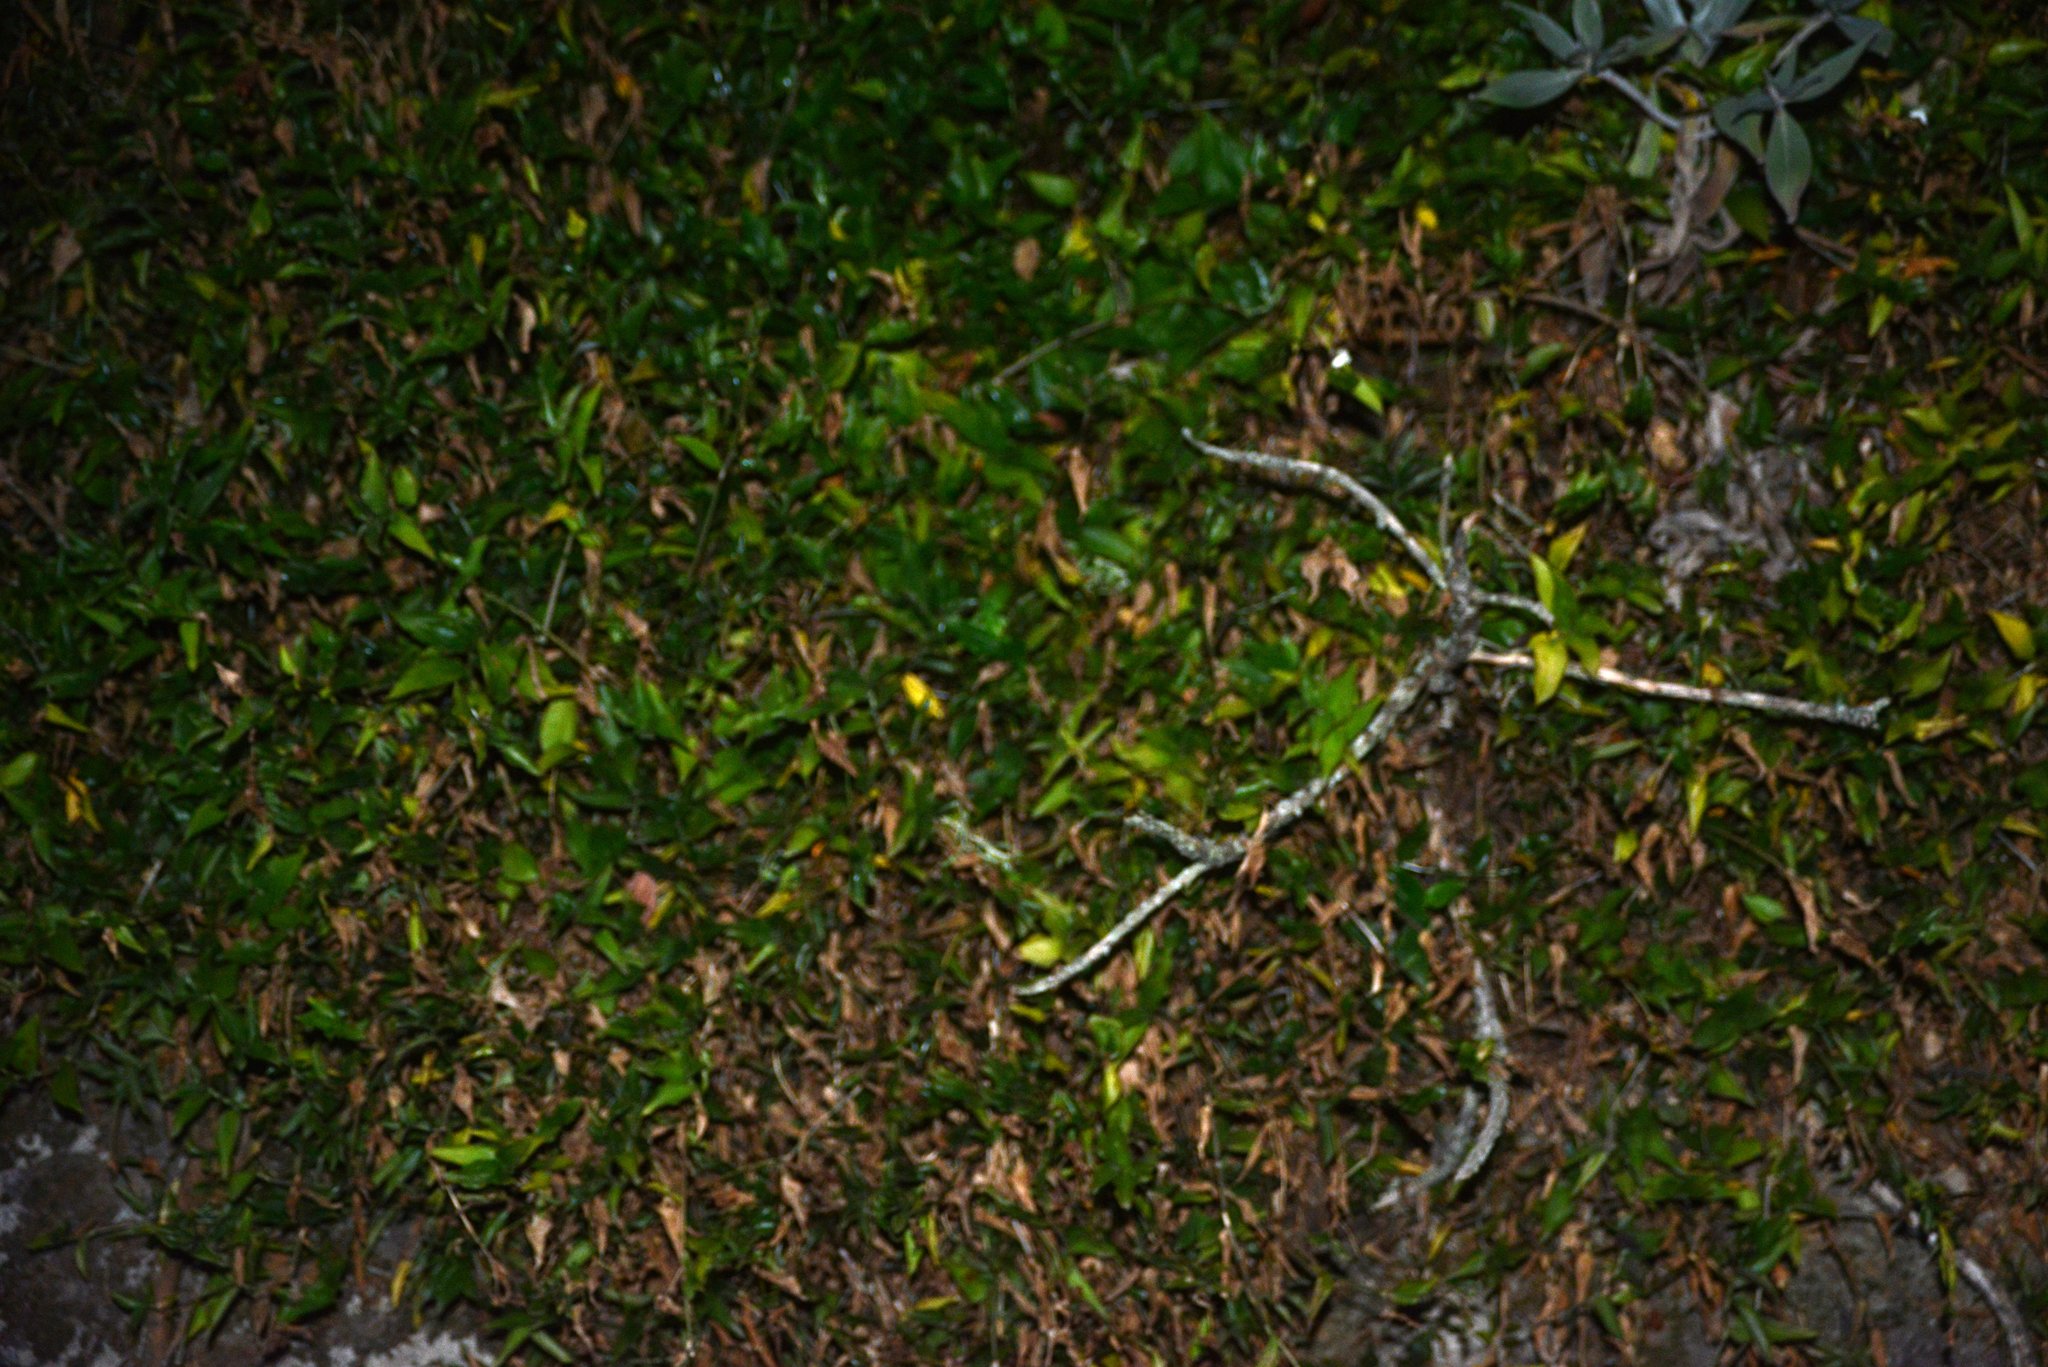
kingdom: Plantae
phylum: Tracheophyta
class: Liliopsida
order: Commelinales
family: Commelinaceae
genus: Tradescantia
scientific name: Tradescantia fluminensis
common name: Wandering-jew
